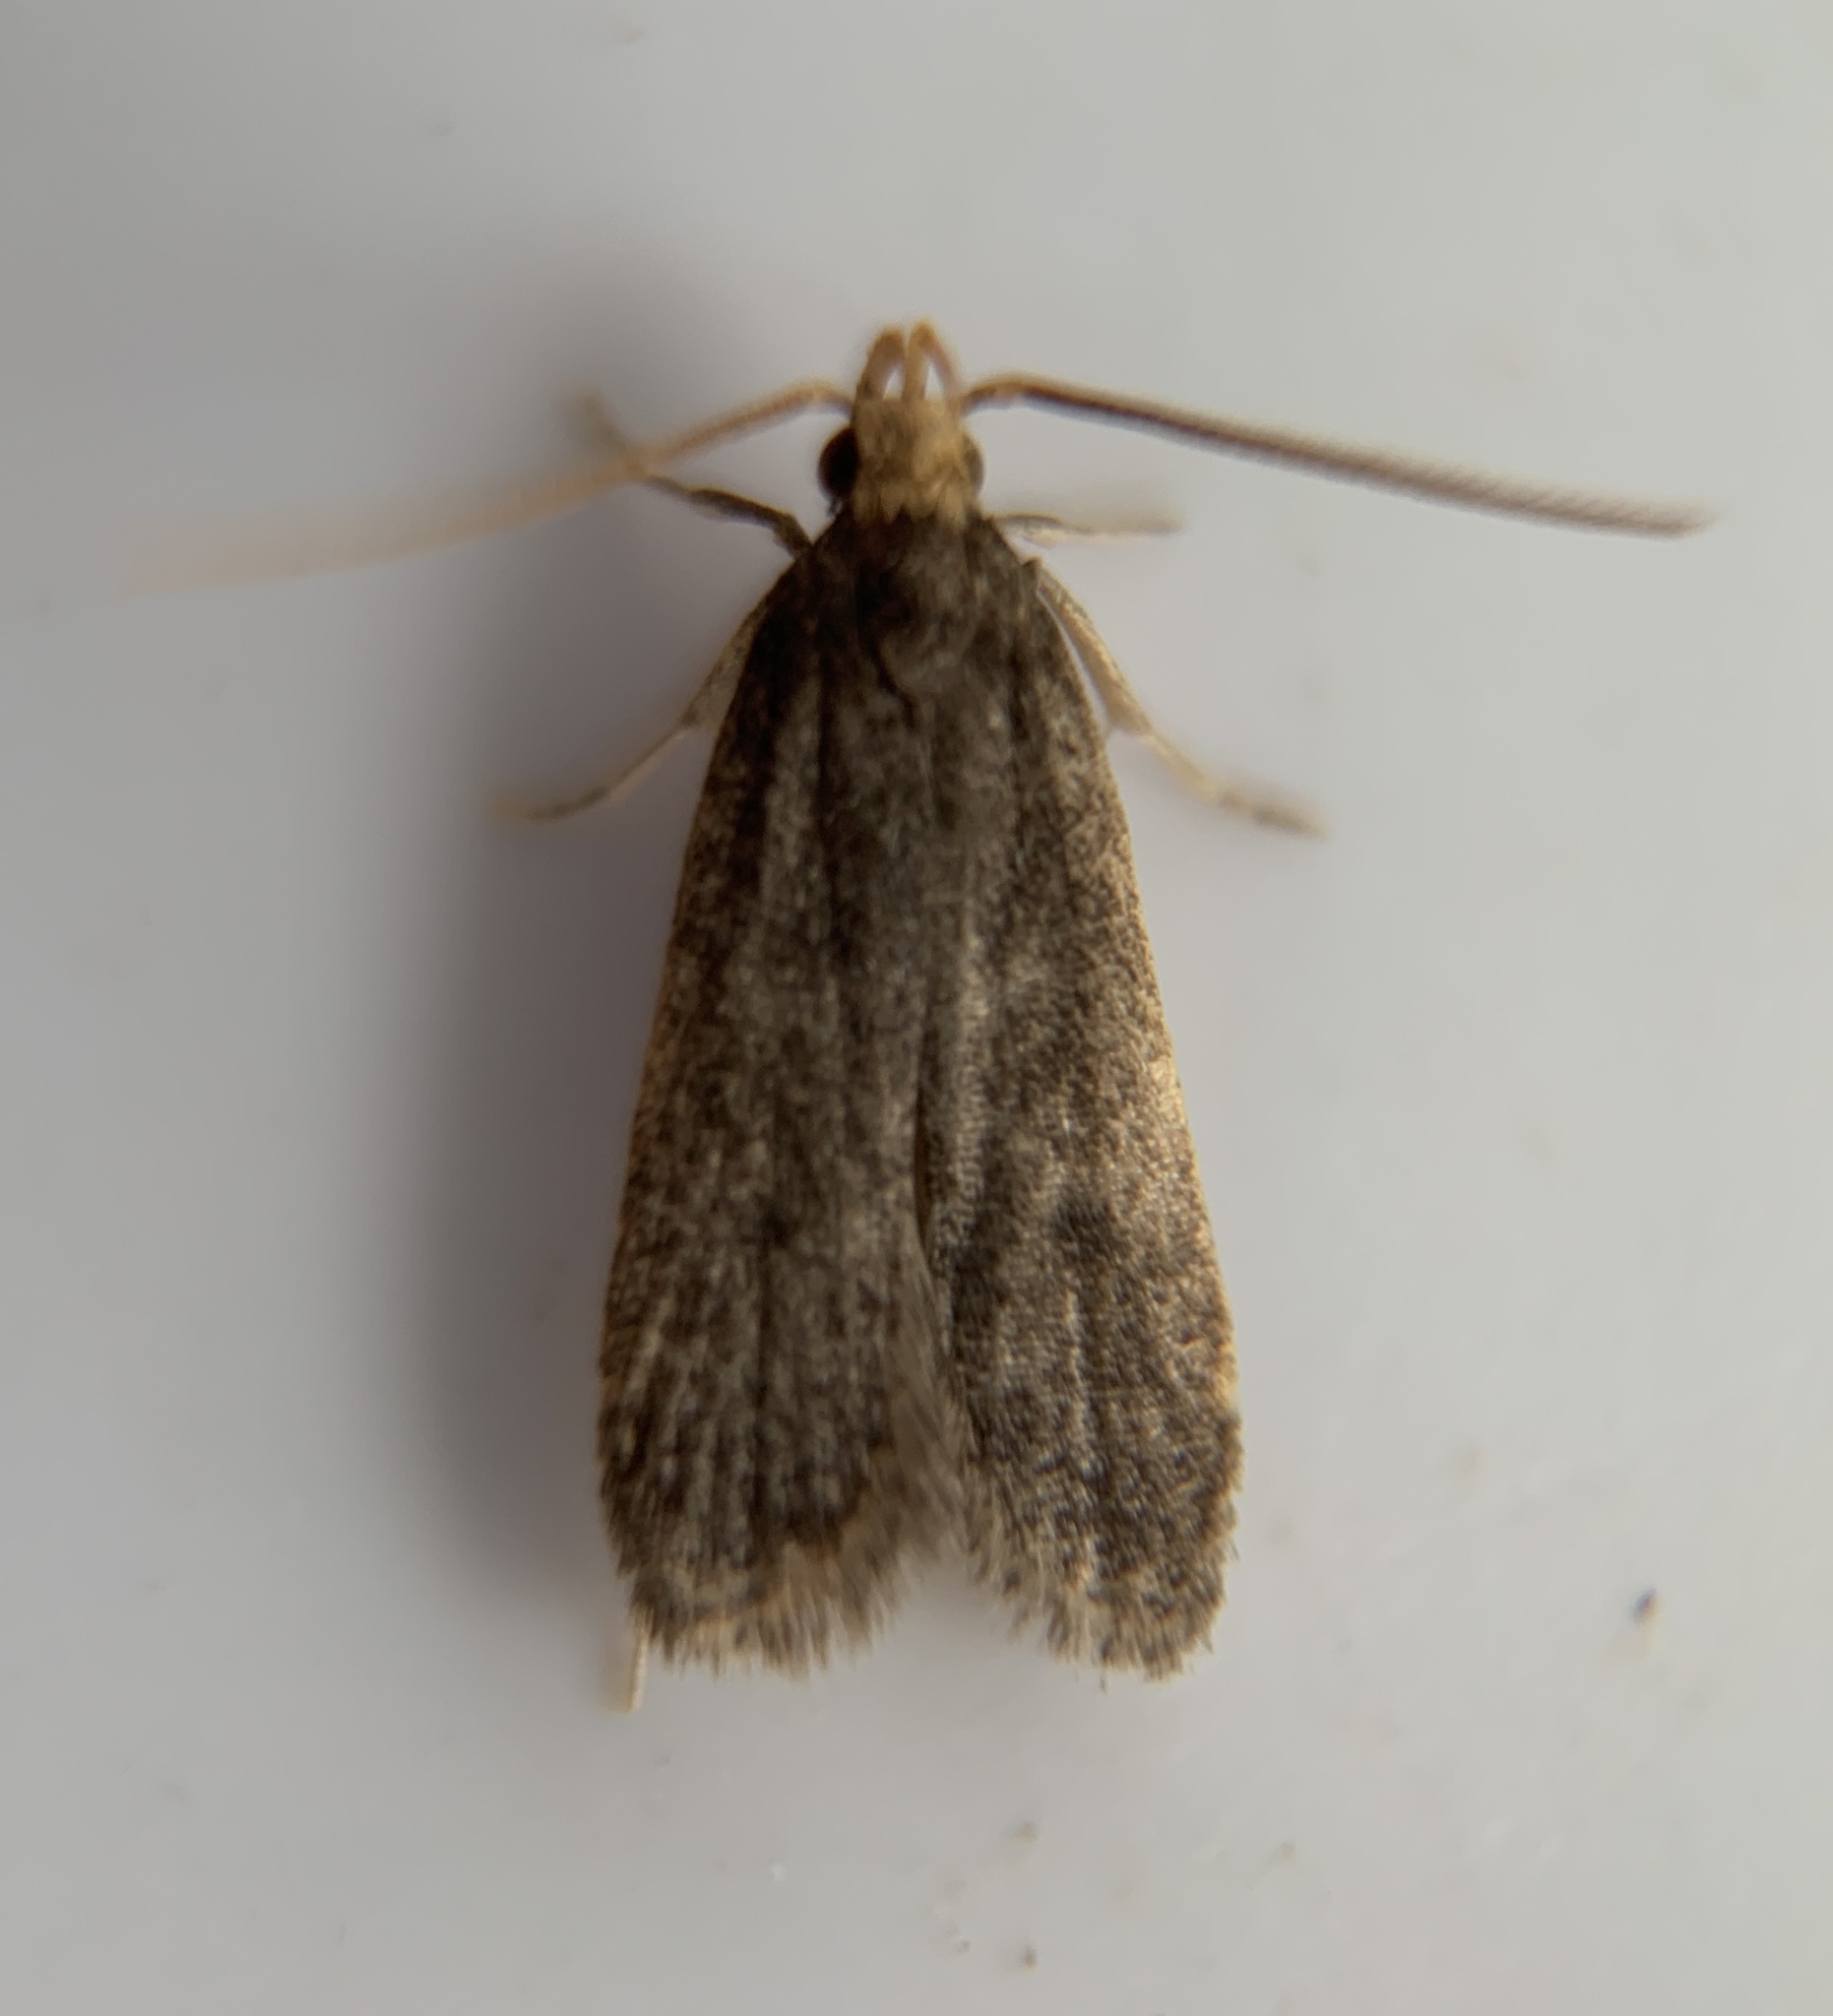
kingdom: Animalia
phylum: Arthropoda
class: Insecta
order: Lepidoptera
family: Autostichidae
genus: Glyphidocera
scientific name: Glyphidocera lithodoxa
